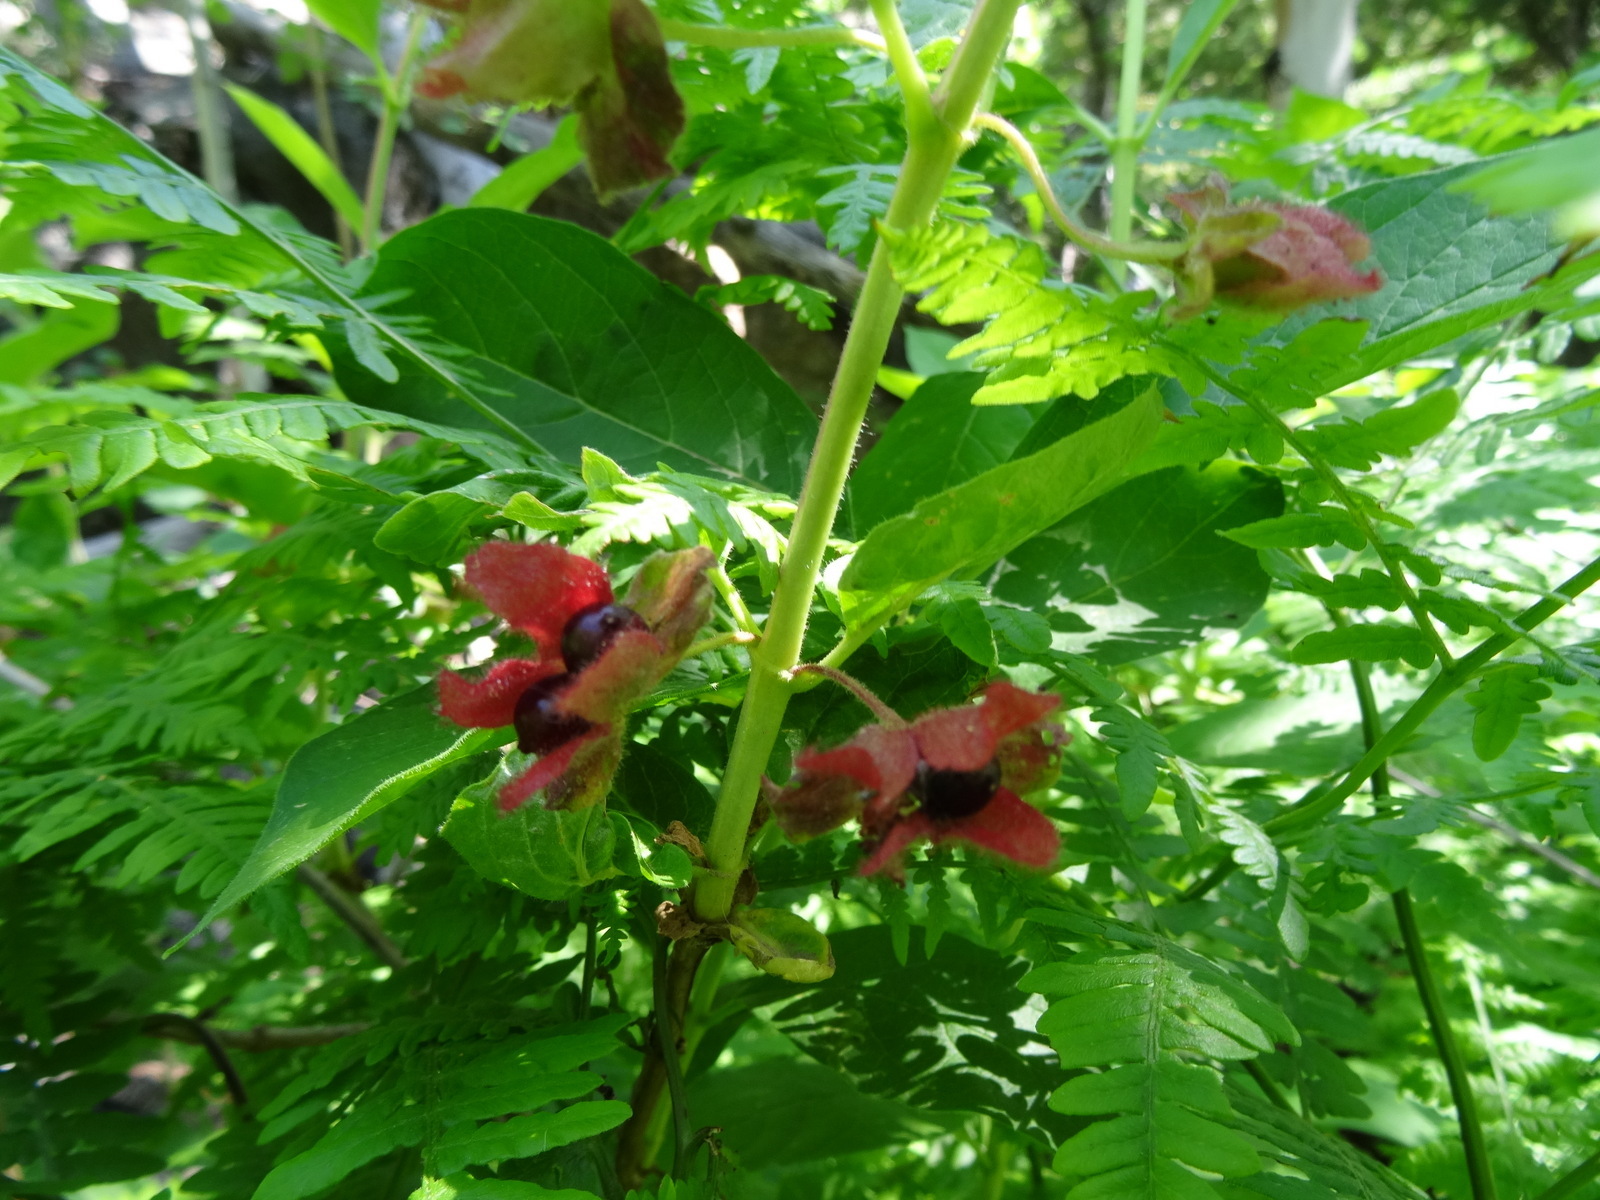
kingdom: Plantae
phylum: Tracheophyta
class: Magnoliopsida
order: Dipsacales
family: Caprifoliaceae
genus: Lonicera
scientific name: Lonicera involucrata
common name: Californian honeysuckle
